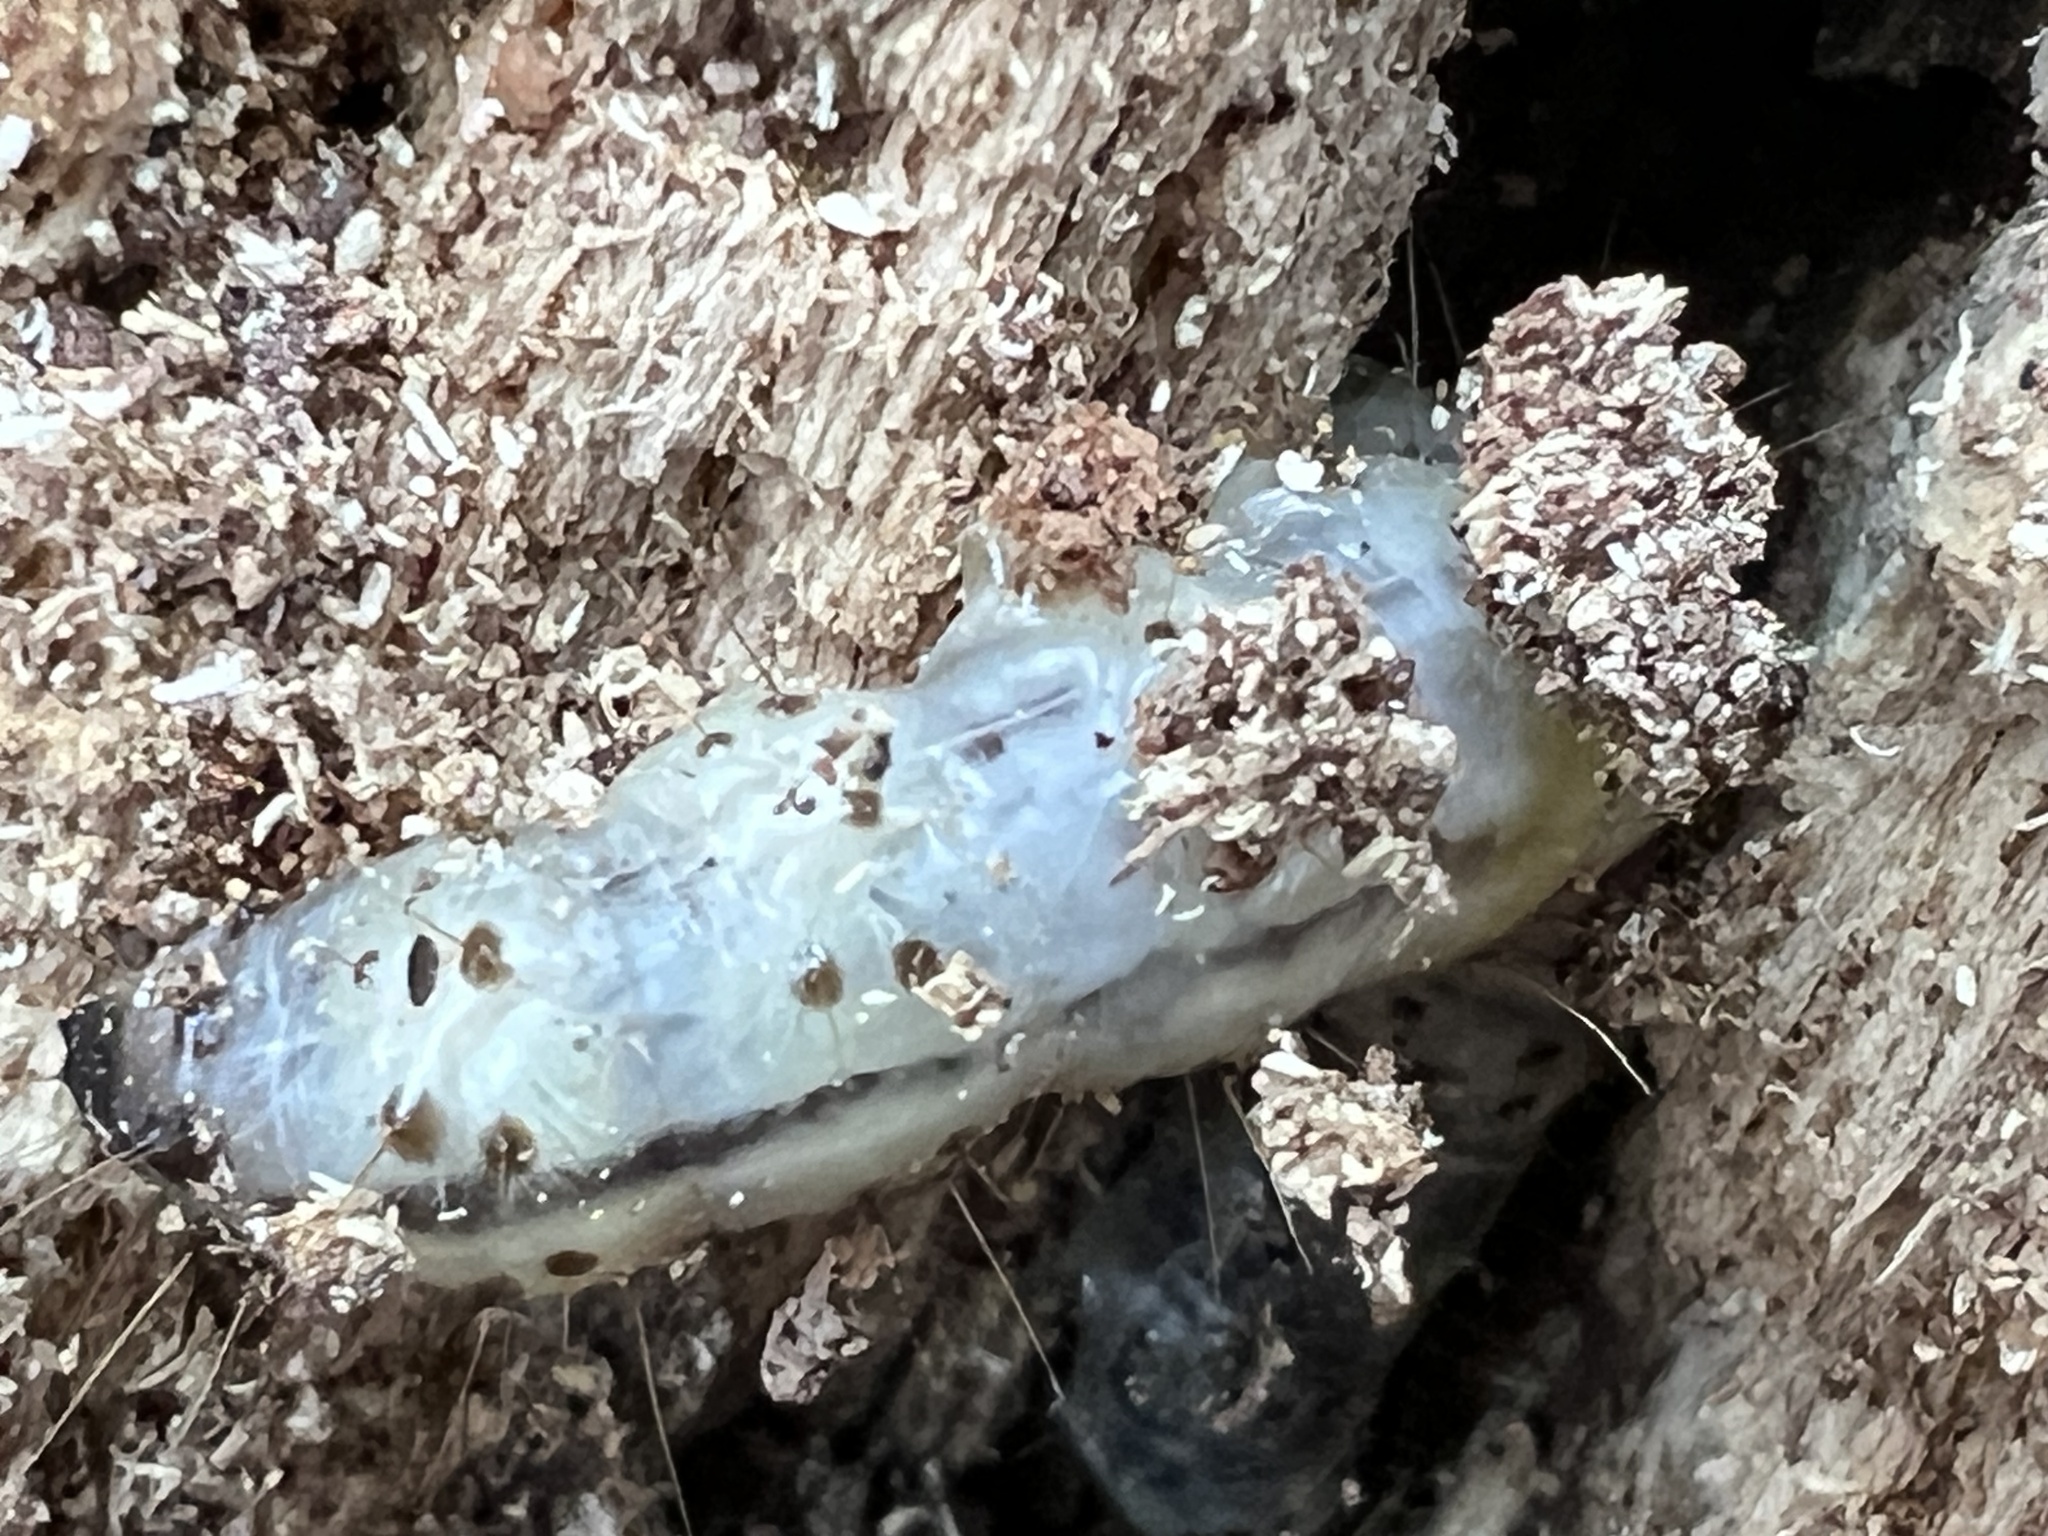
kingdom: Animalia
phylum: Arthropoda
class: Insecta
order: Lepidoptera
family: Erebidae
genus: Scolecocampa
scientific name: Scolecocampa liburna
